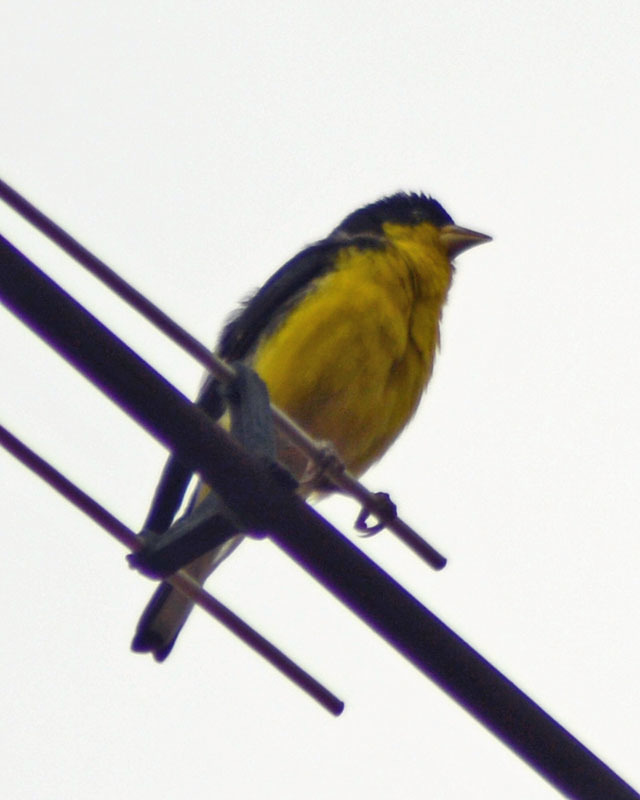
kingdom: Animalia
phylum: Chordata
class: Aves
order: Passeriformes
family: Fringillidae
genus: Spinus
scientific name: Spinus psaltria
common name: Lesser goldfinch
